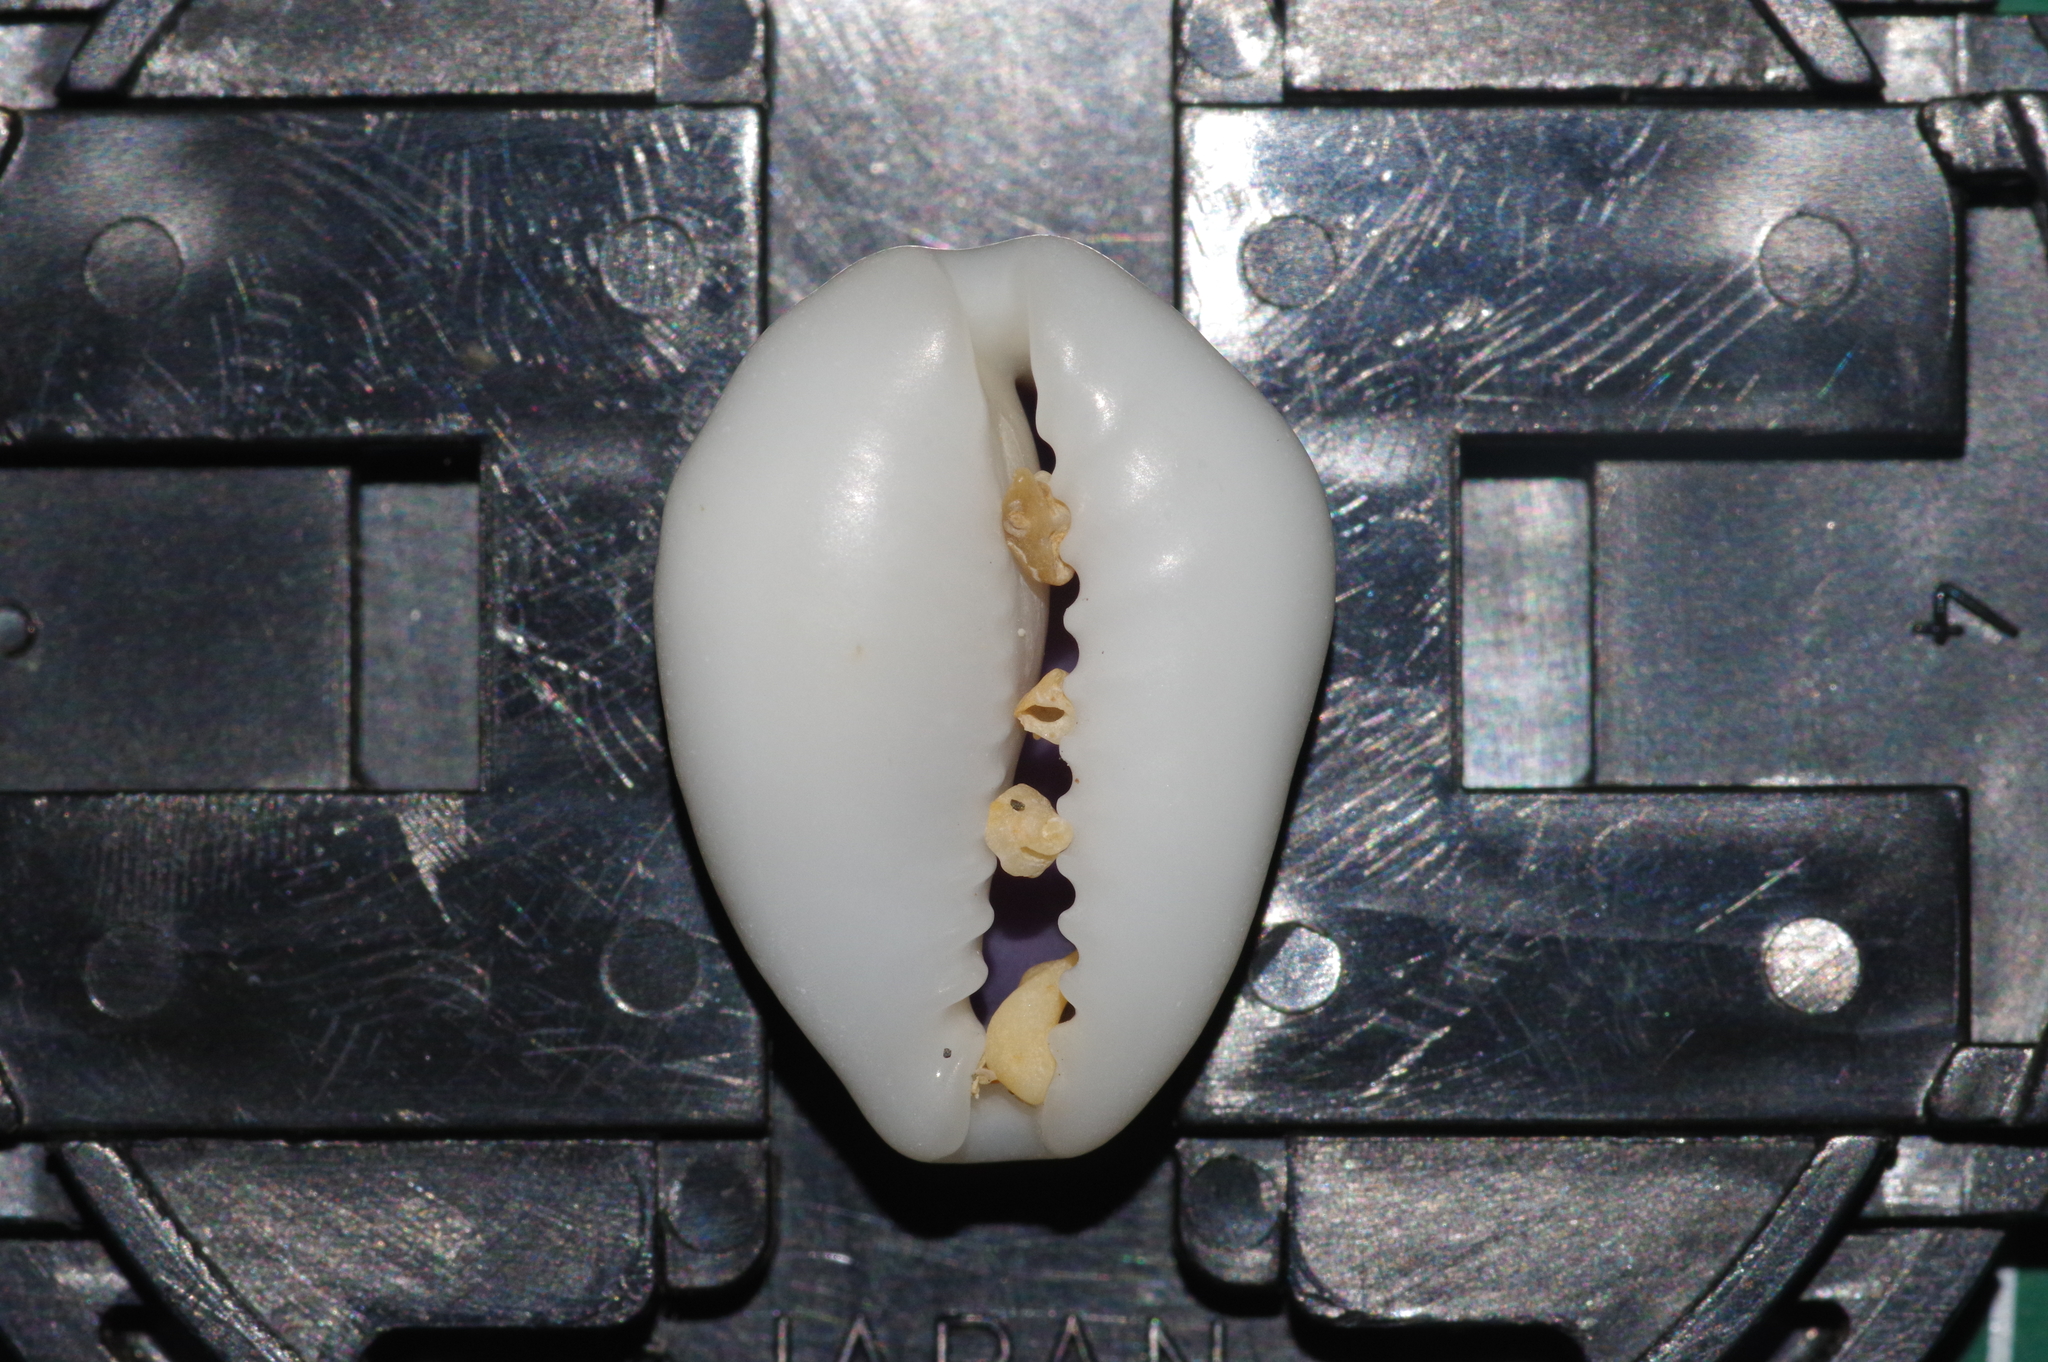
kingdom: Animalia
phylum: Mollusca
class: Gastropoda
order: Littorinimorpha
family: Cypraeidae
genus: Monetaria
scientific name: Monetaria moneta
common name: Money cowrie
